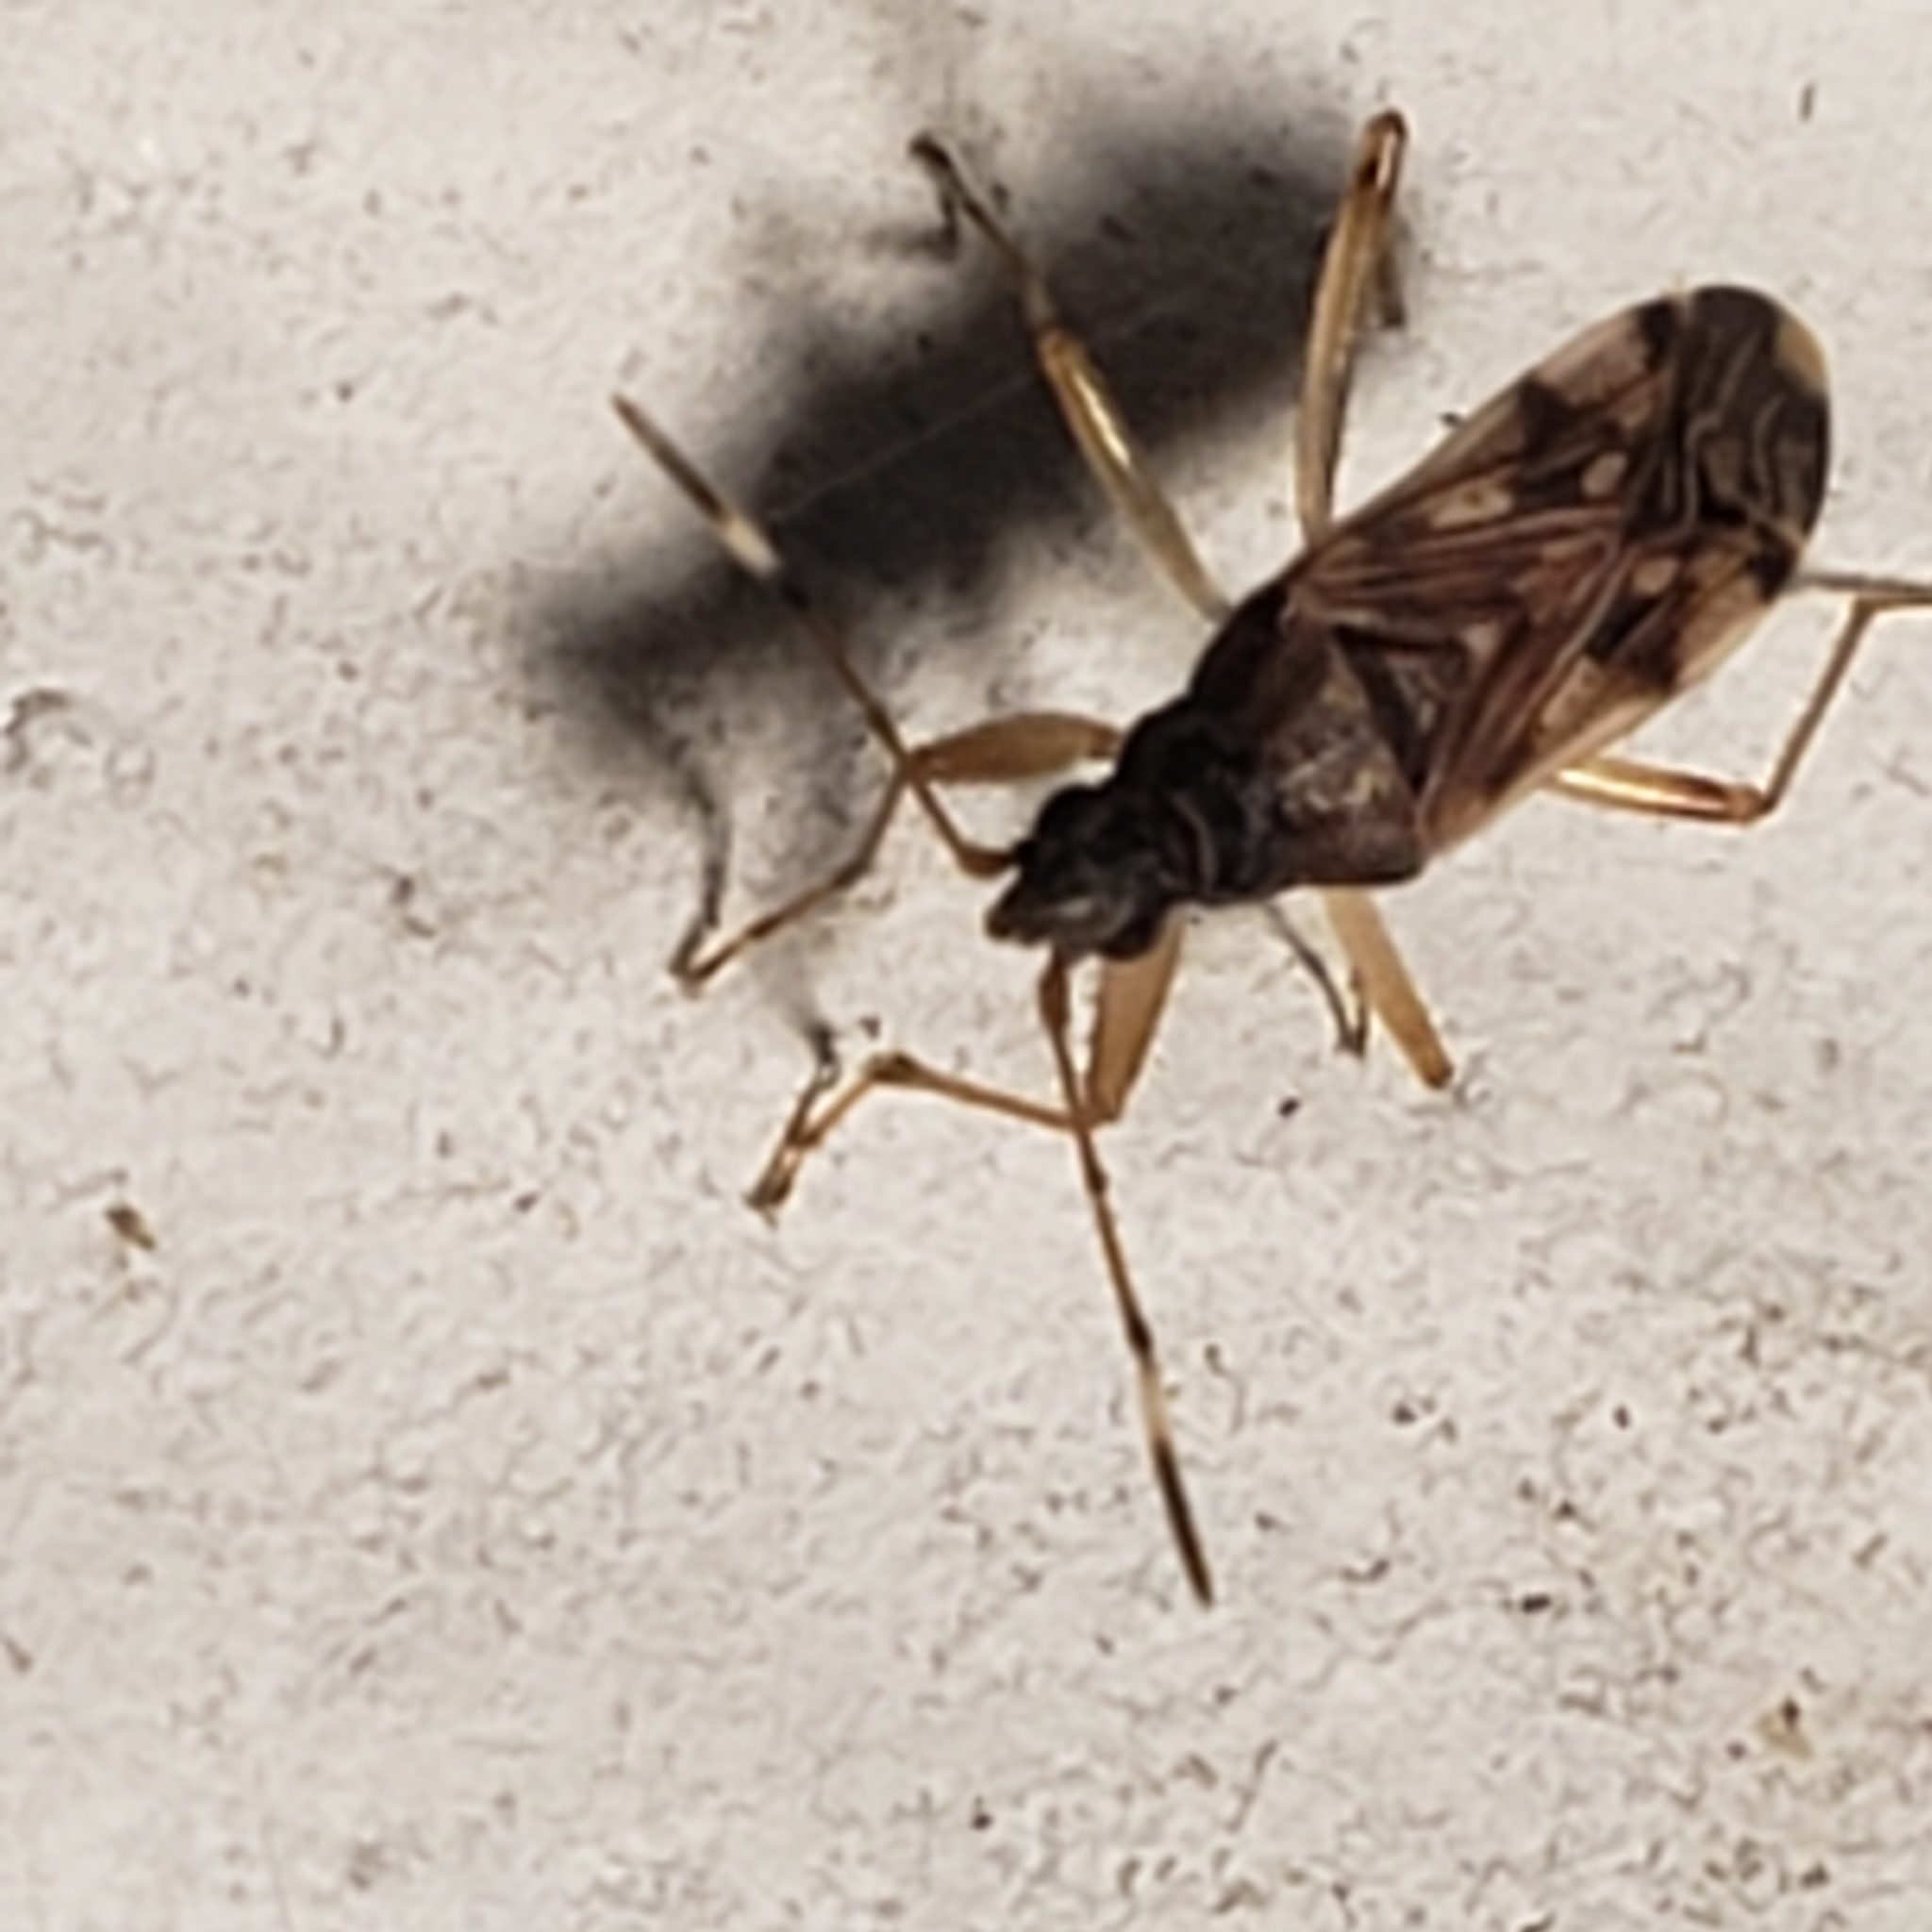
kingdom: Animalia
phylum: Arthropoda
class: Insecta
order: Hemiptera
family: Rhyparochromidae
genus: Ozophora
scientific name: Ozophora picturata
